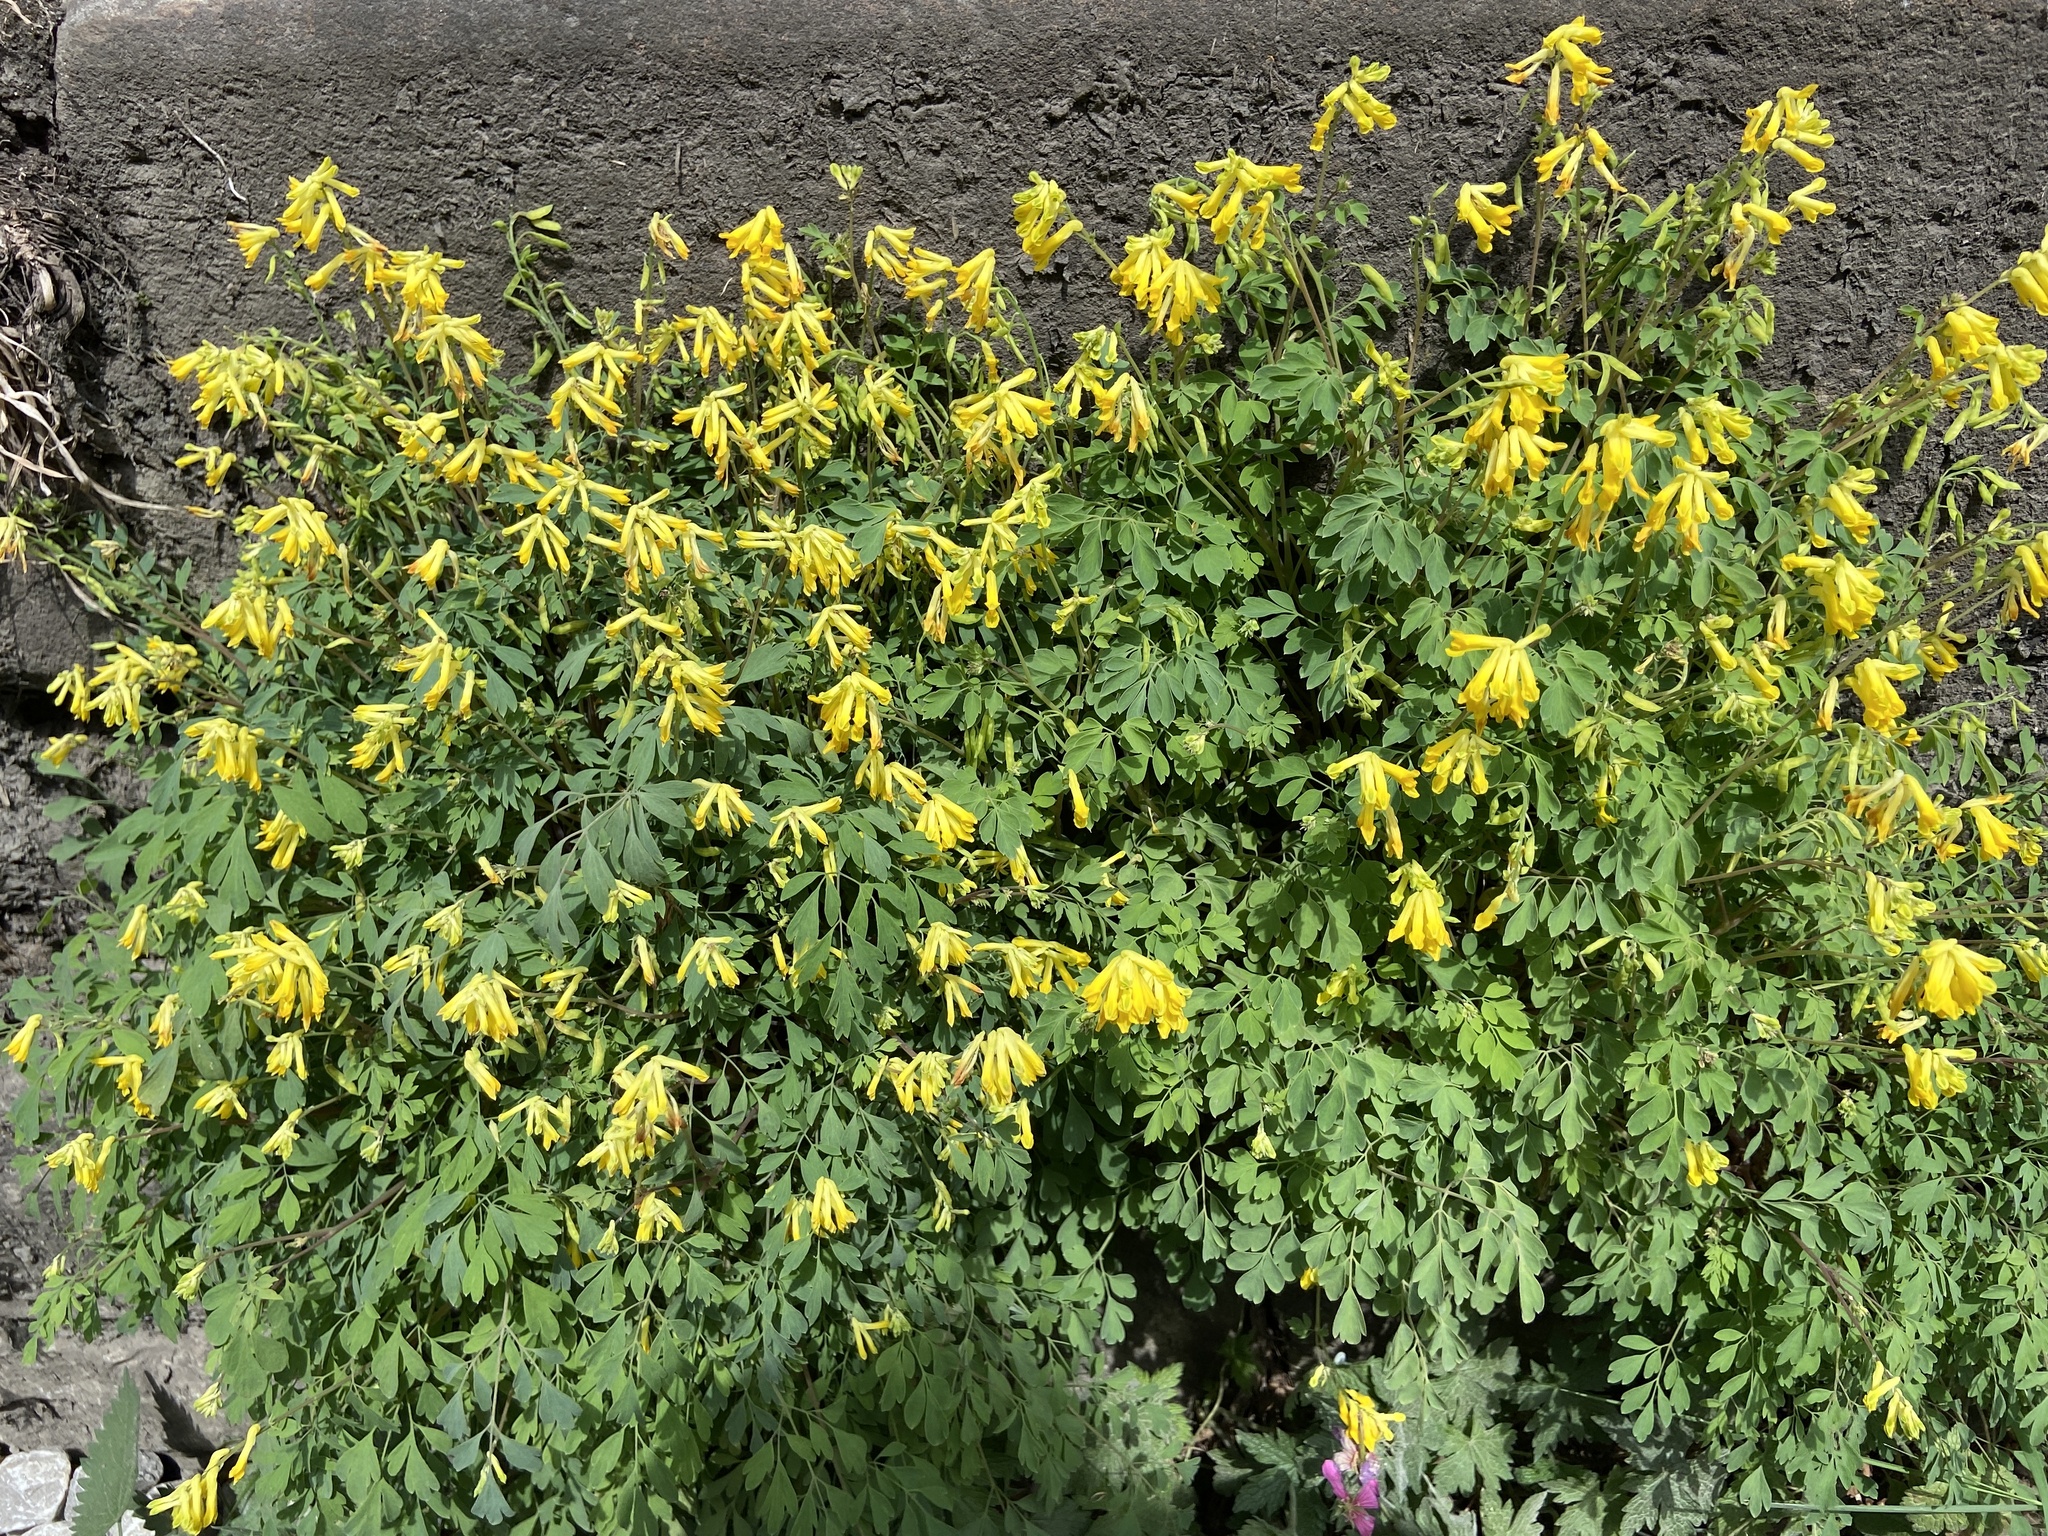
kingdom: Plantae
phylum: Tracheophyta
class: Magnoliopsida
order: Ranunculales
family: Papaveraceae
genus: Pseudofumaria
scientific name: Pseudofumaria lutea
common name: Yellow corydalis
